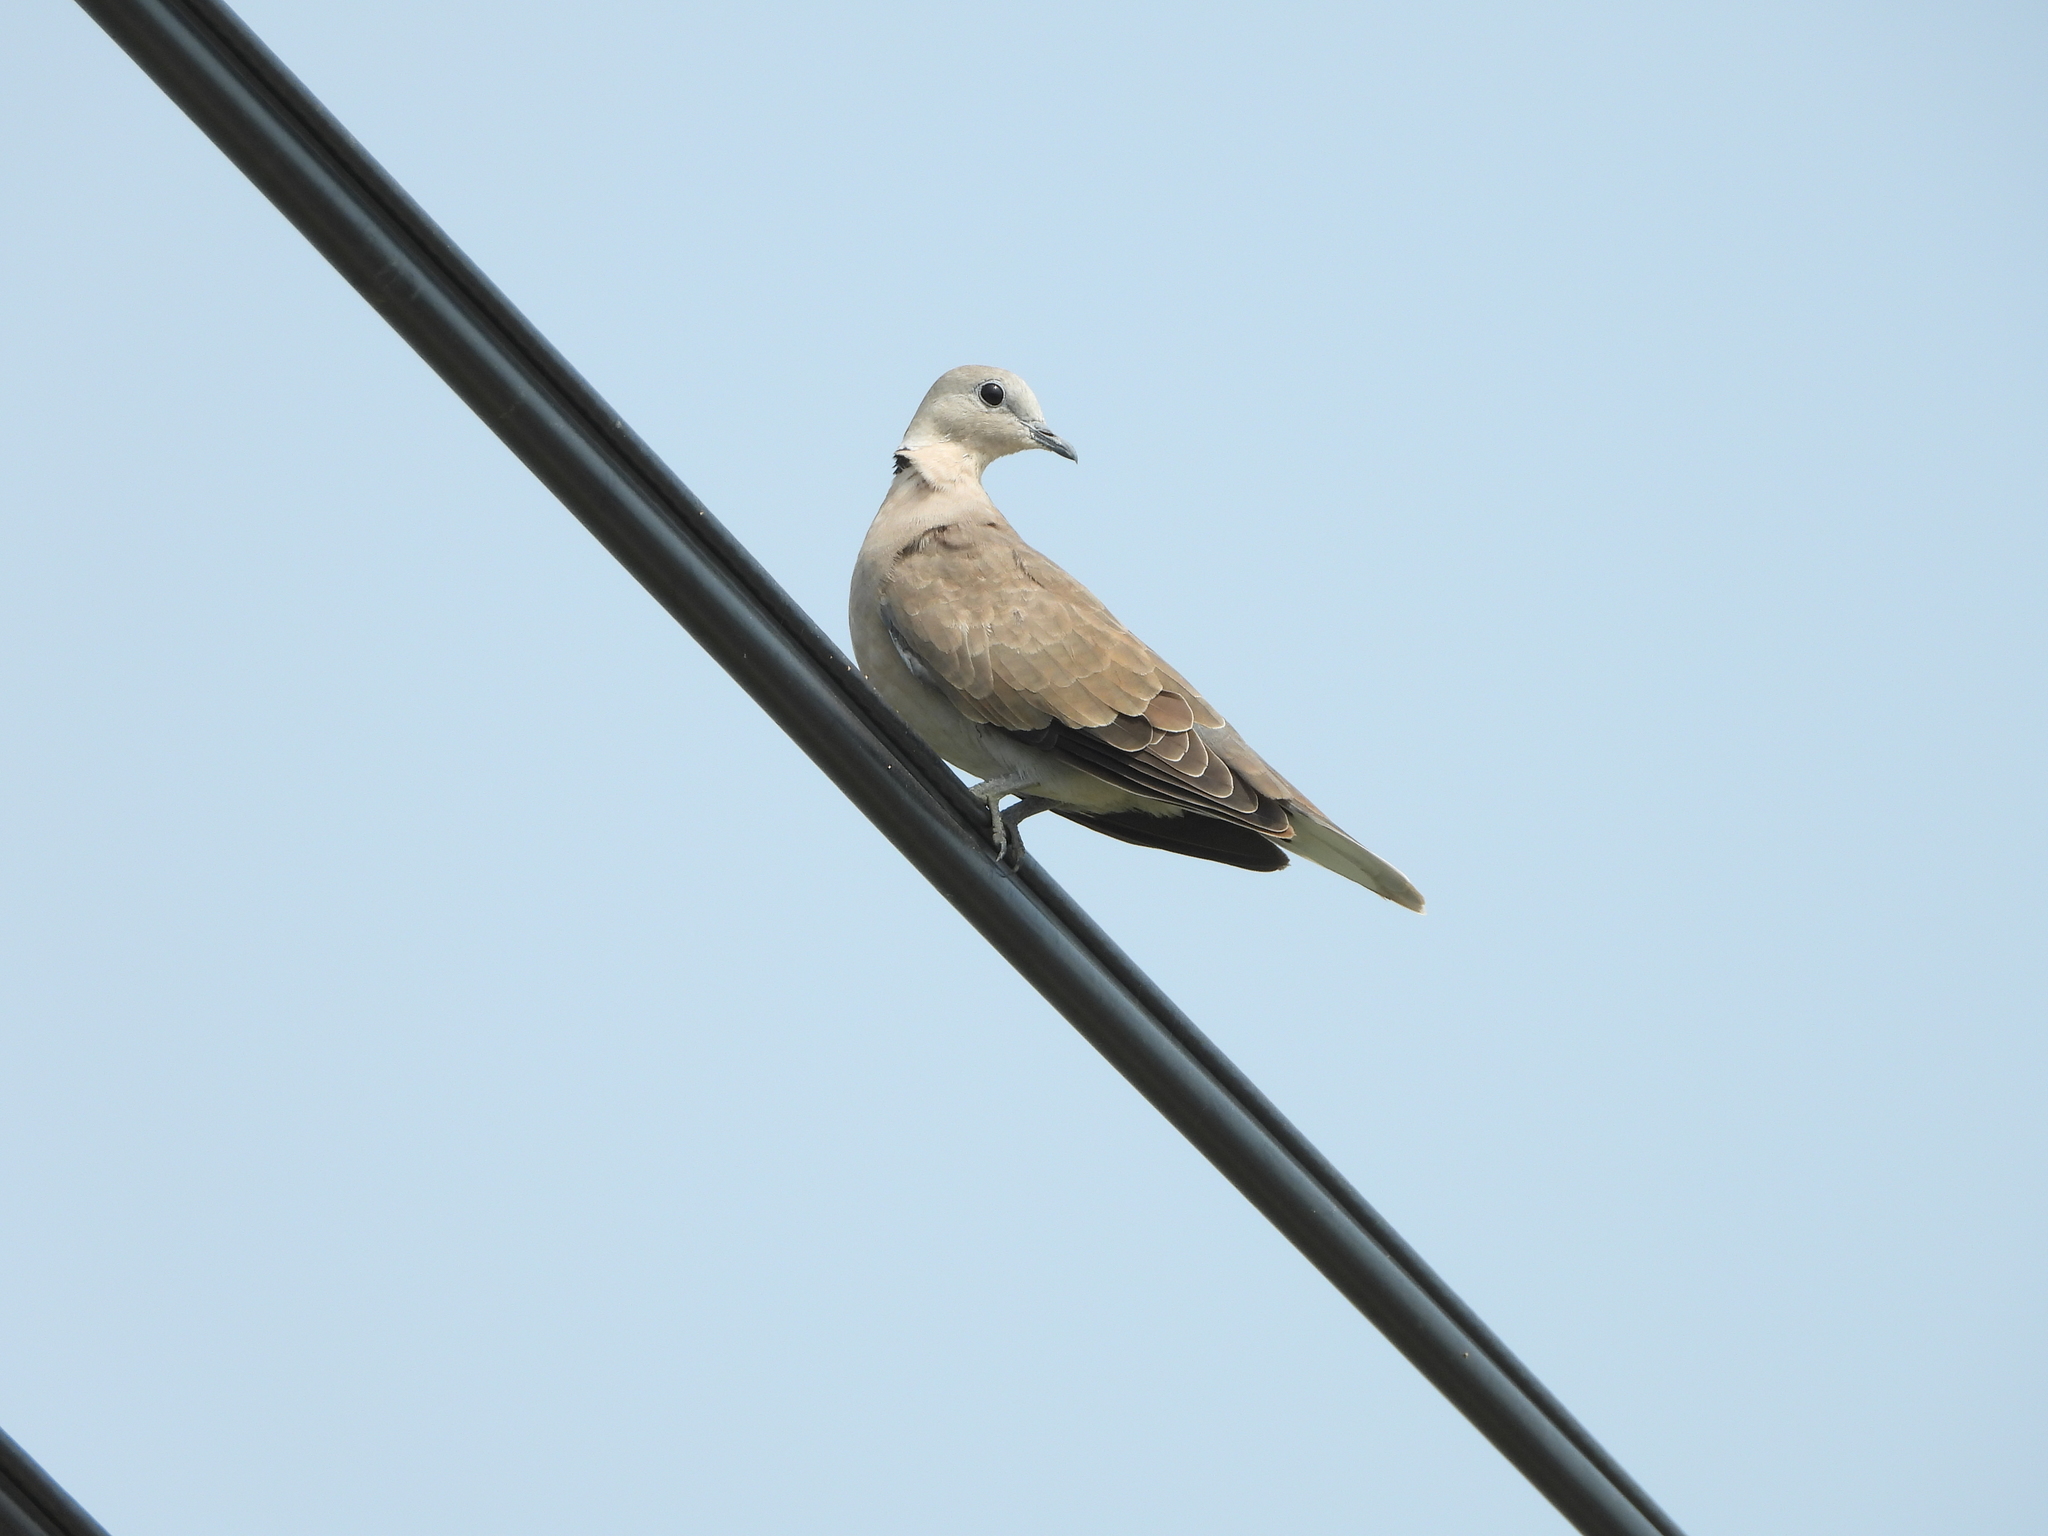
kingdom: Animalia
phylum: Chordata
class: Aves
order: Columbiformes
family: Columbidae
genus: Streptopelia
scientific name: Streptopelia tranquebarica
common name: Red turtle dove
